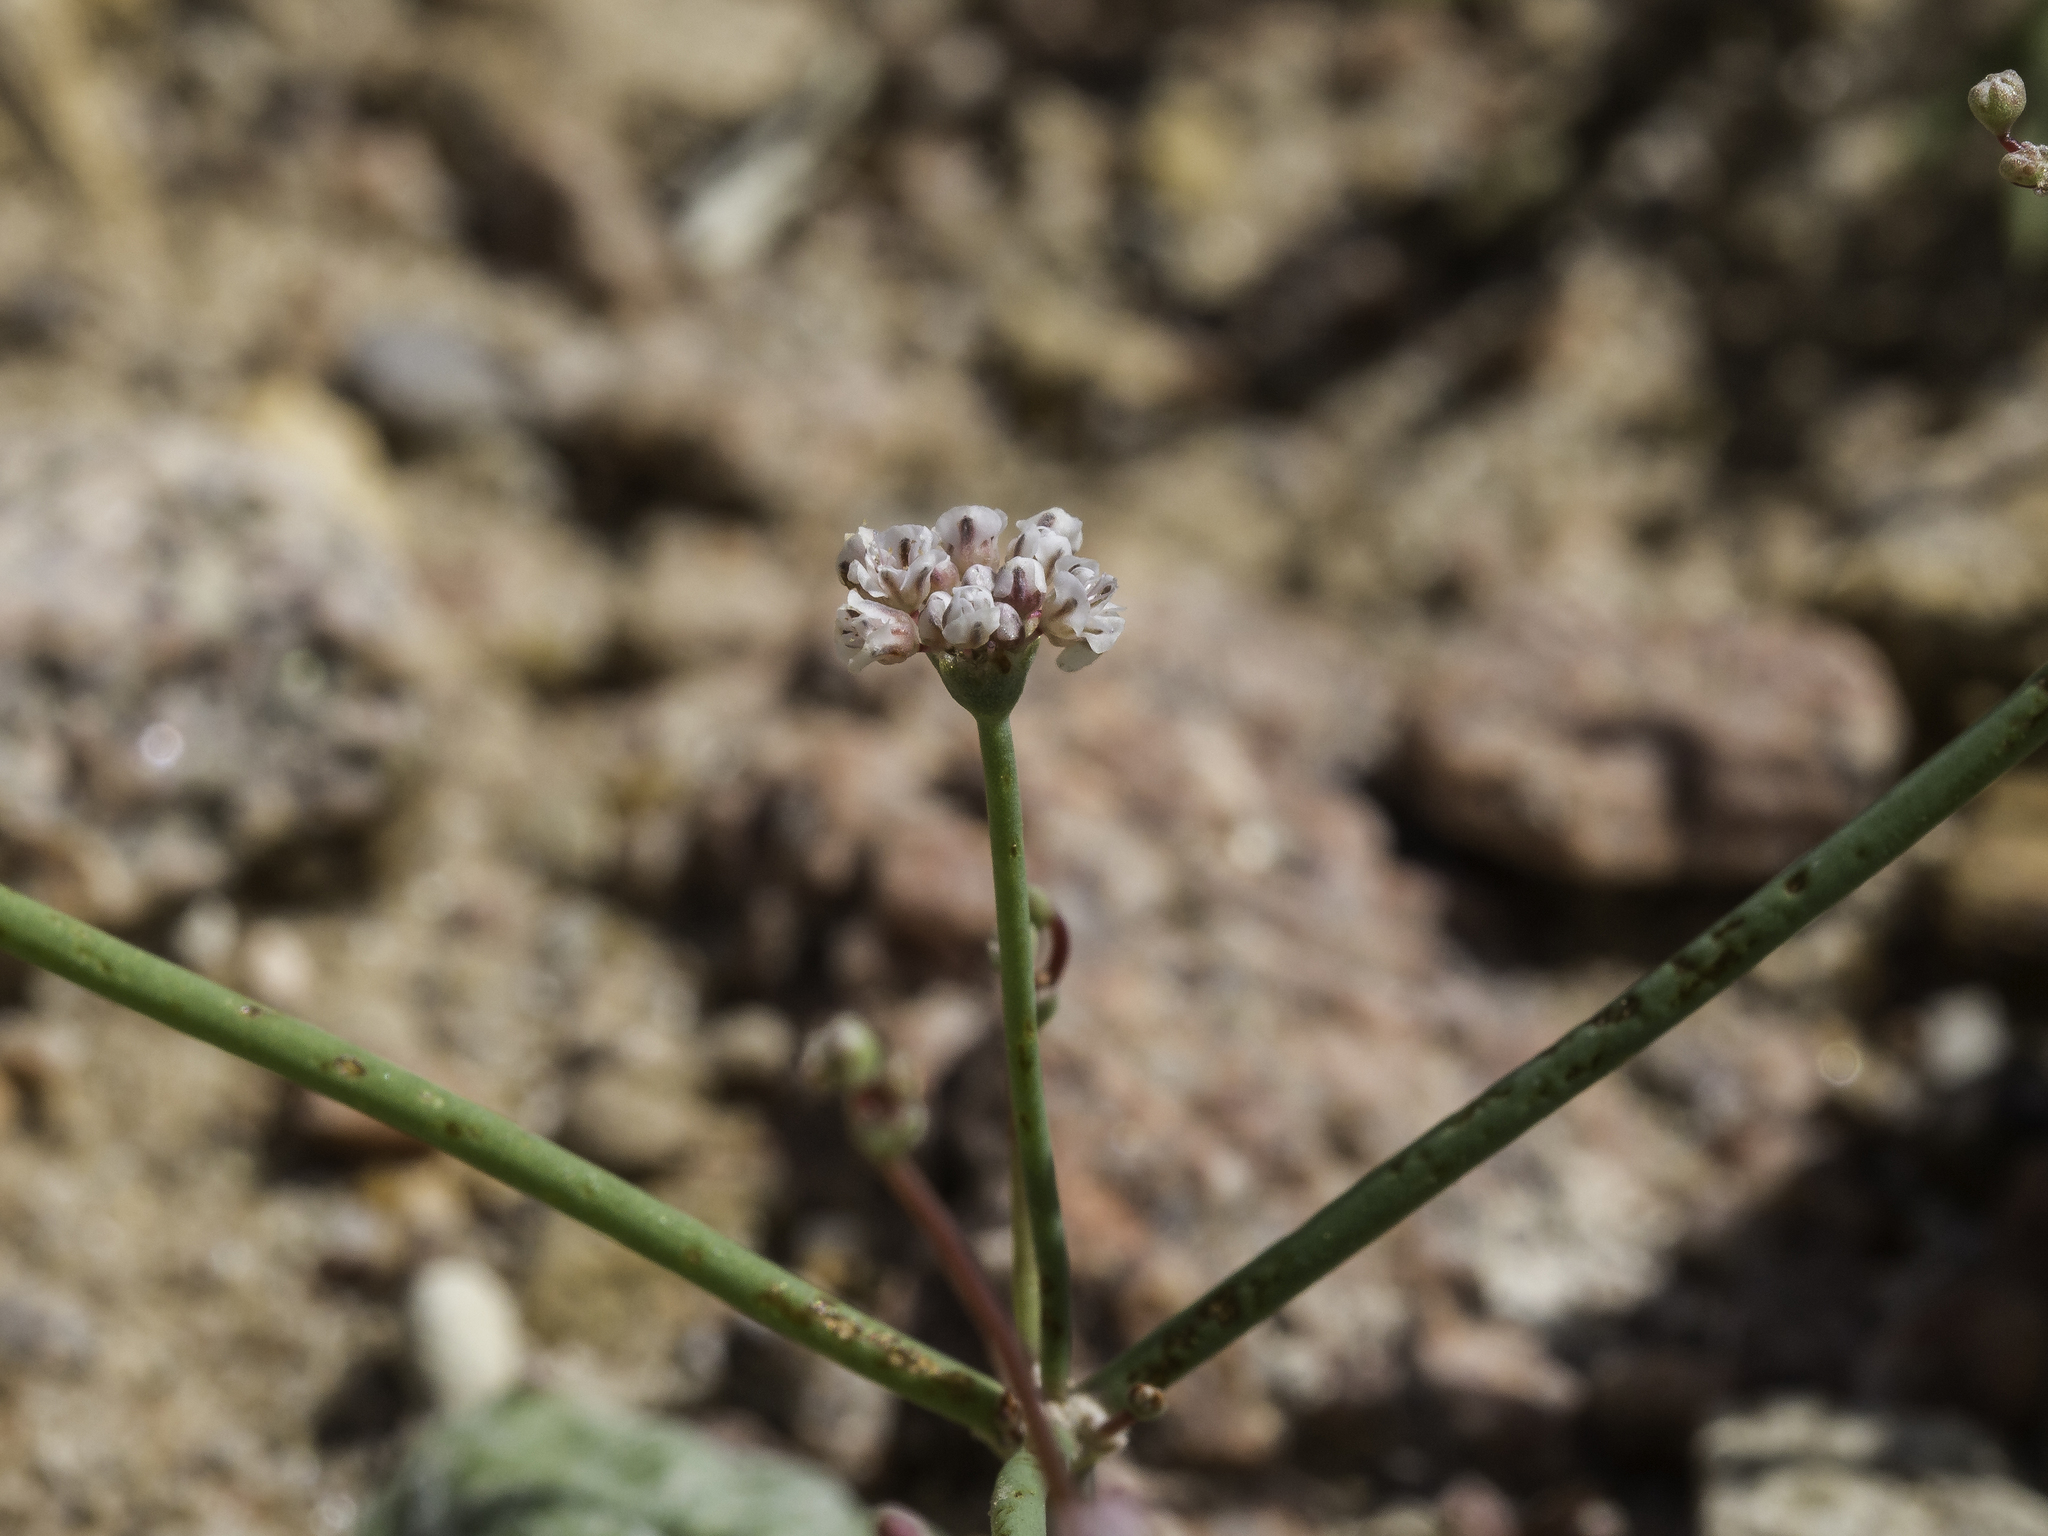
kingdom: Plantae
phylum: Tracheophyta
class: Magnoliopsida
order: Caryophyllales
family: Polygonaceae
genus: Eriogonum
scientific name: Eriogonum rotundifolium
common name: Round-leaf wild buckwheat
